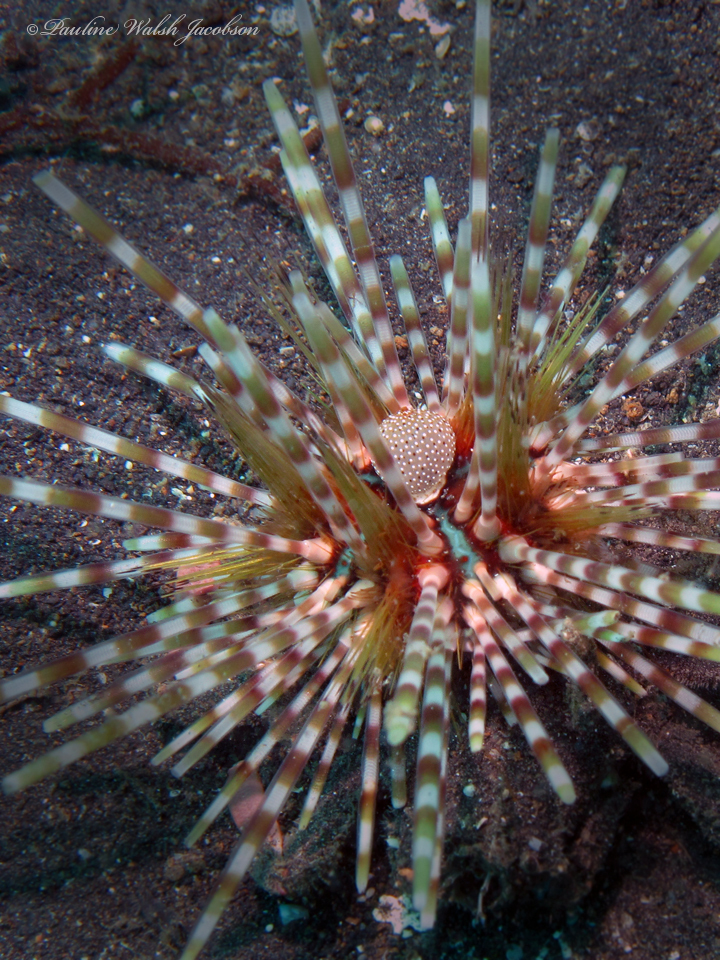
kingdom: Animalia
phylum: Echinodermata
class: Echinoidea
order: Diadematoida
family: Diadematidae
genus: Echinothrix
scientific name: Echinothrix calamaris
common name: Banded sea urchin
